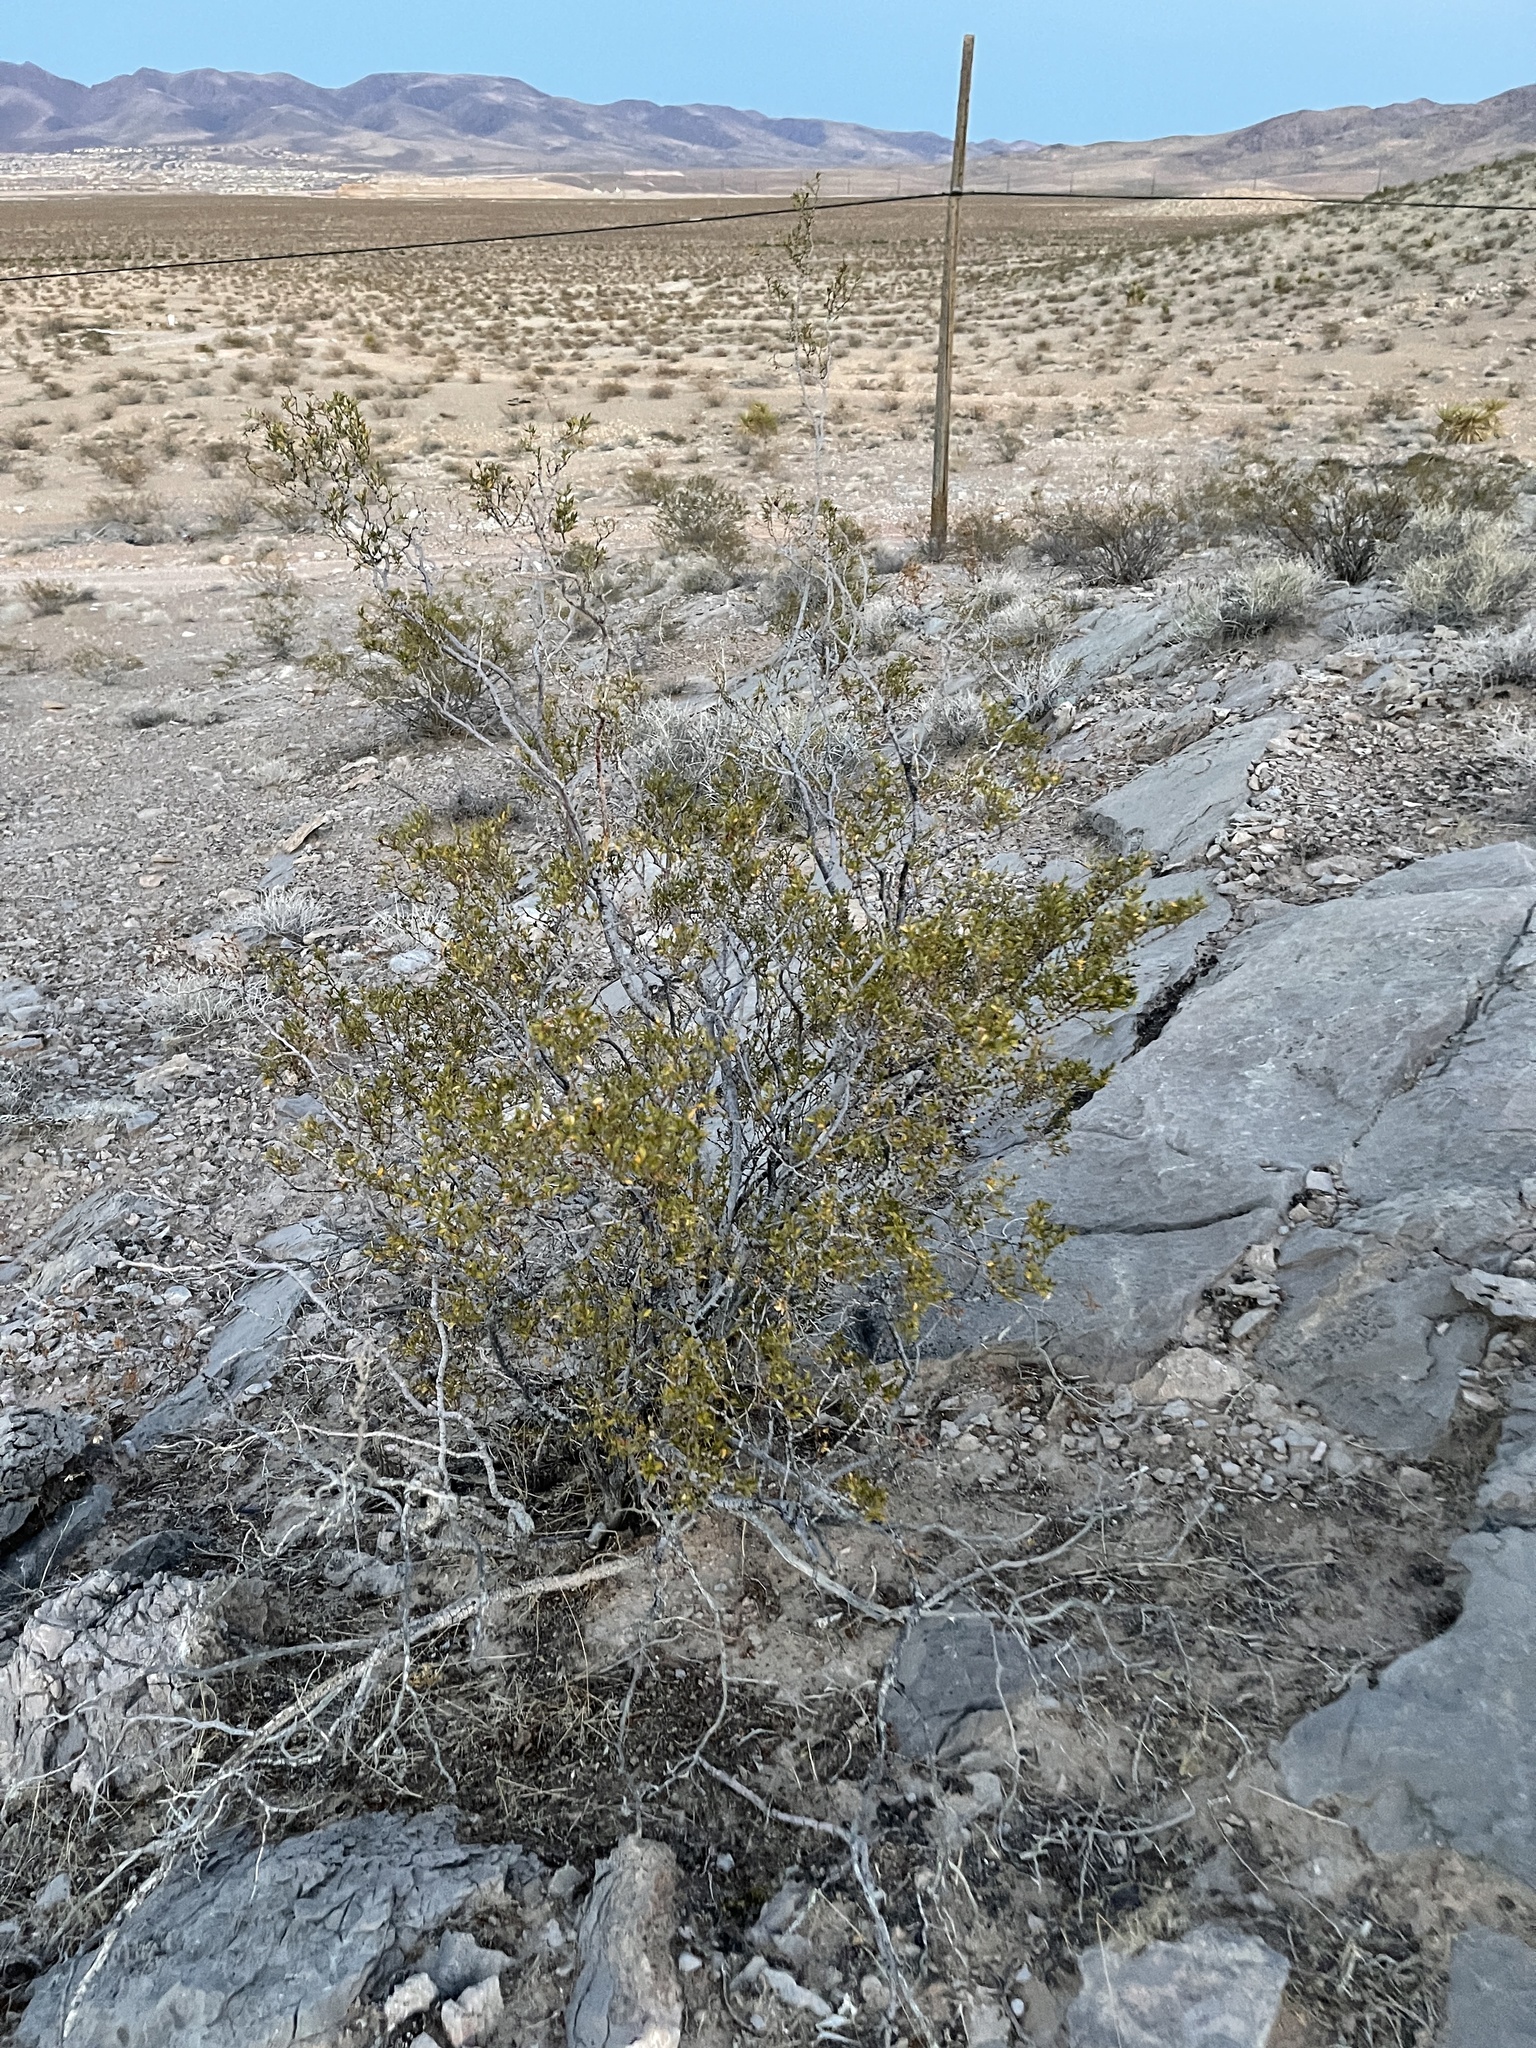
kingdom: Plantae
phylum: Tracheophyta
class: Magnoliopsida
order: Zygophyllales
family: Zygophyllaceae
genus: Larrea
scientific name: Larrea tridentata
